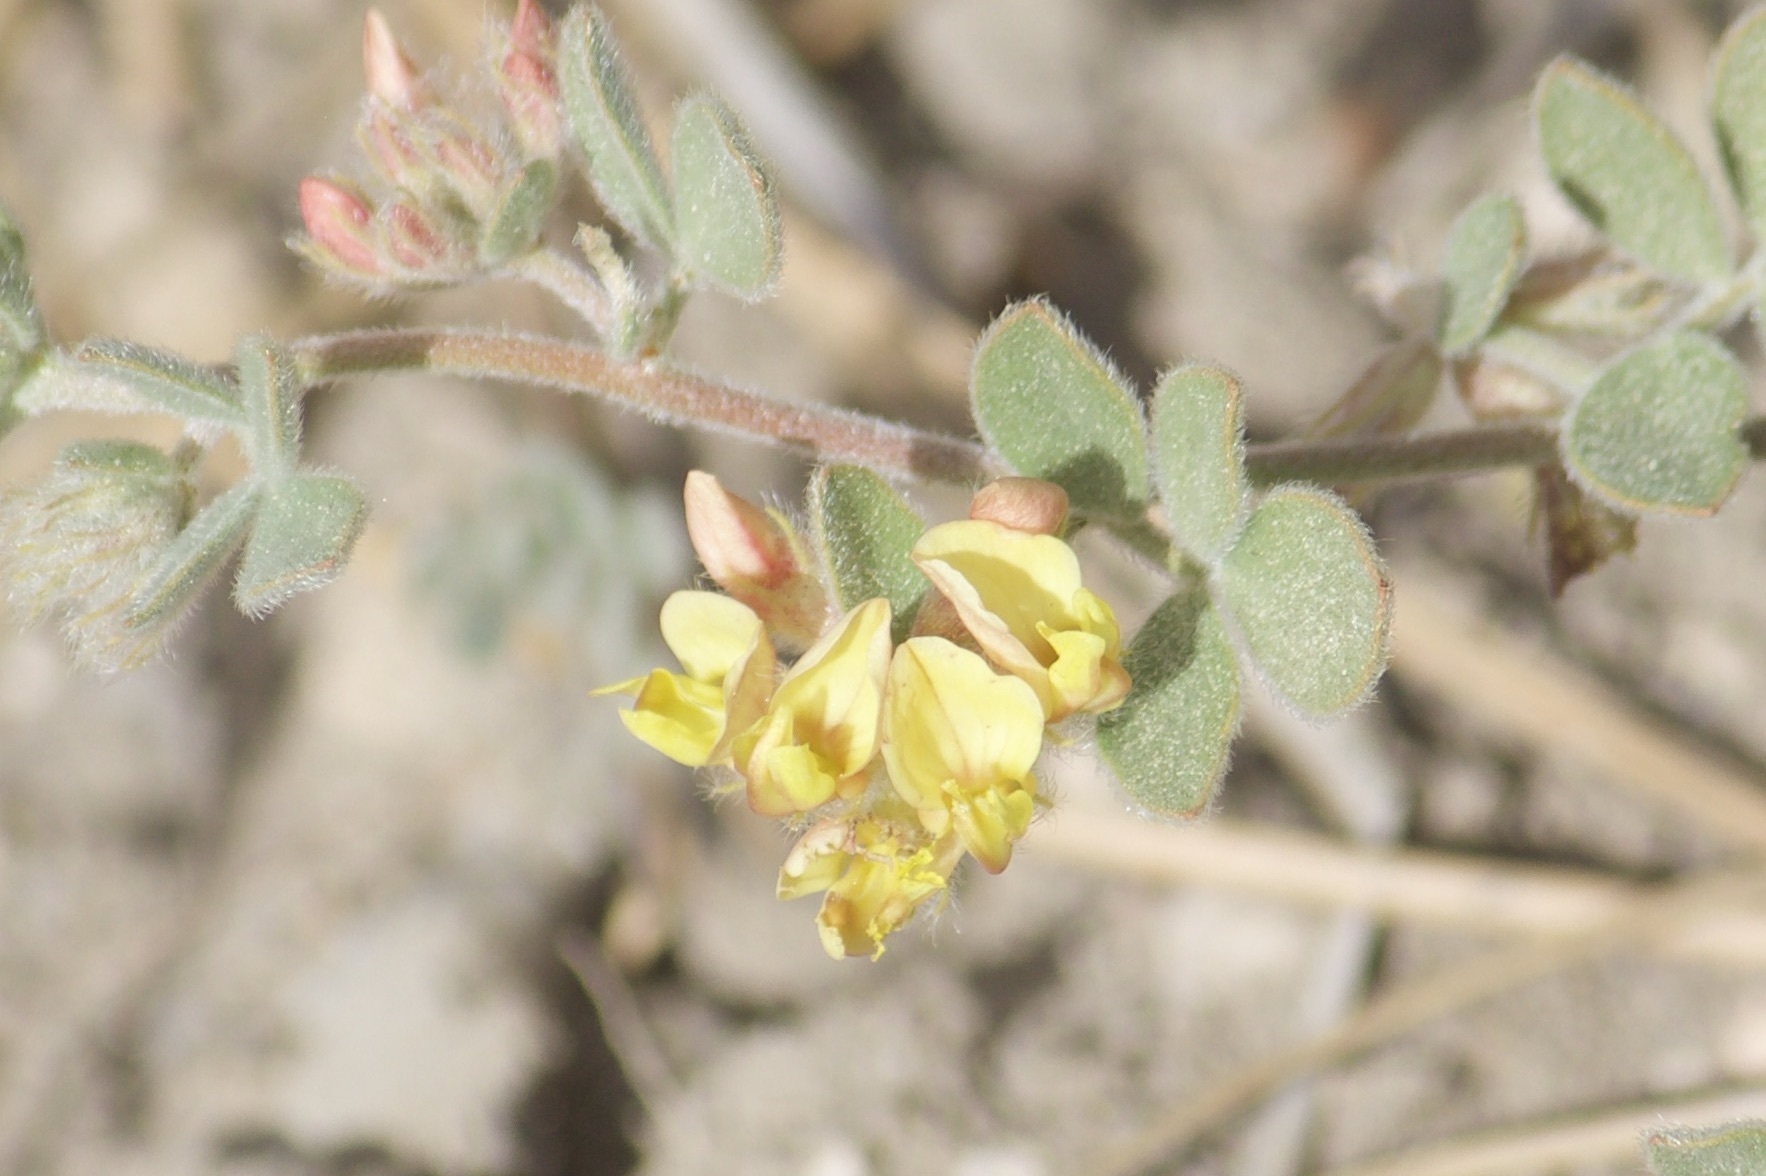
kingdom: Plantae
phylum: Tracheophyta
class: Magnoliopsida
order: Fabales
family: Fabaceae
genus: Acmispon
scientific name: Acmispon decumbens
